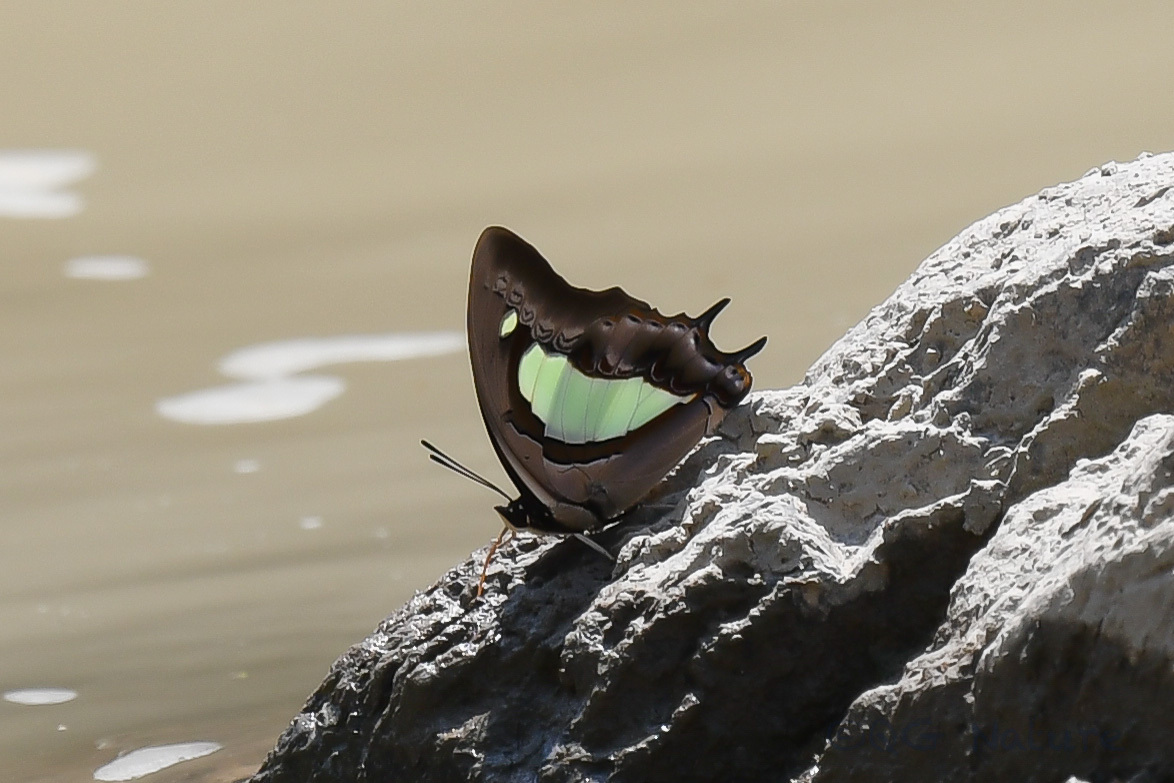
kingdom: Animalia
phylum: Arthropoda
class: Insecta
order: Lepidoptera
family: Nymphalidae
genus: Polyura
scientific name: Polyura athamas
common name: Common nawab
